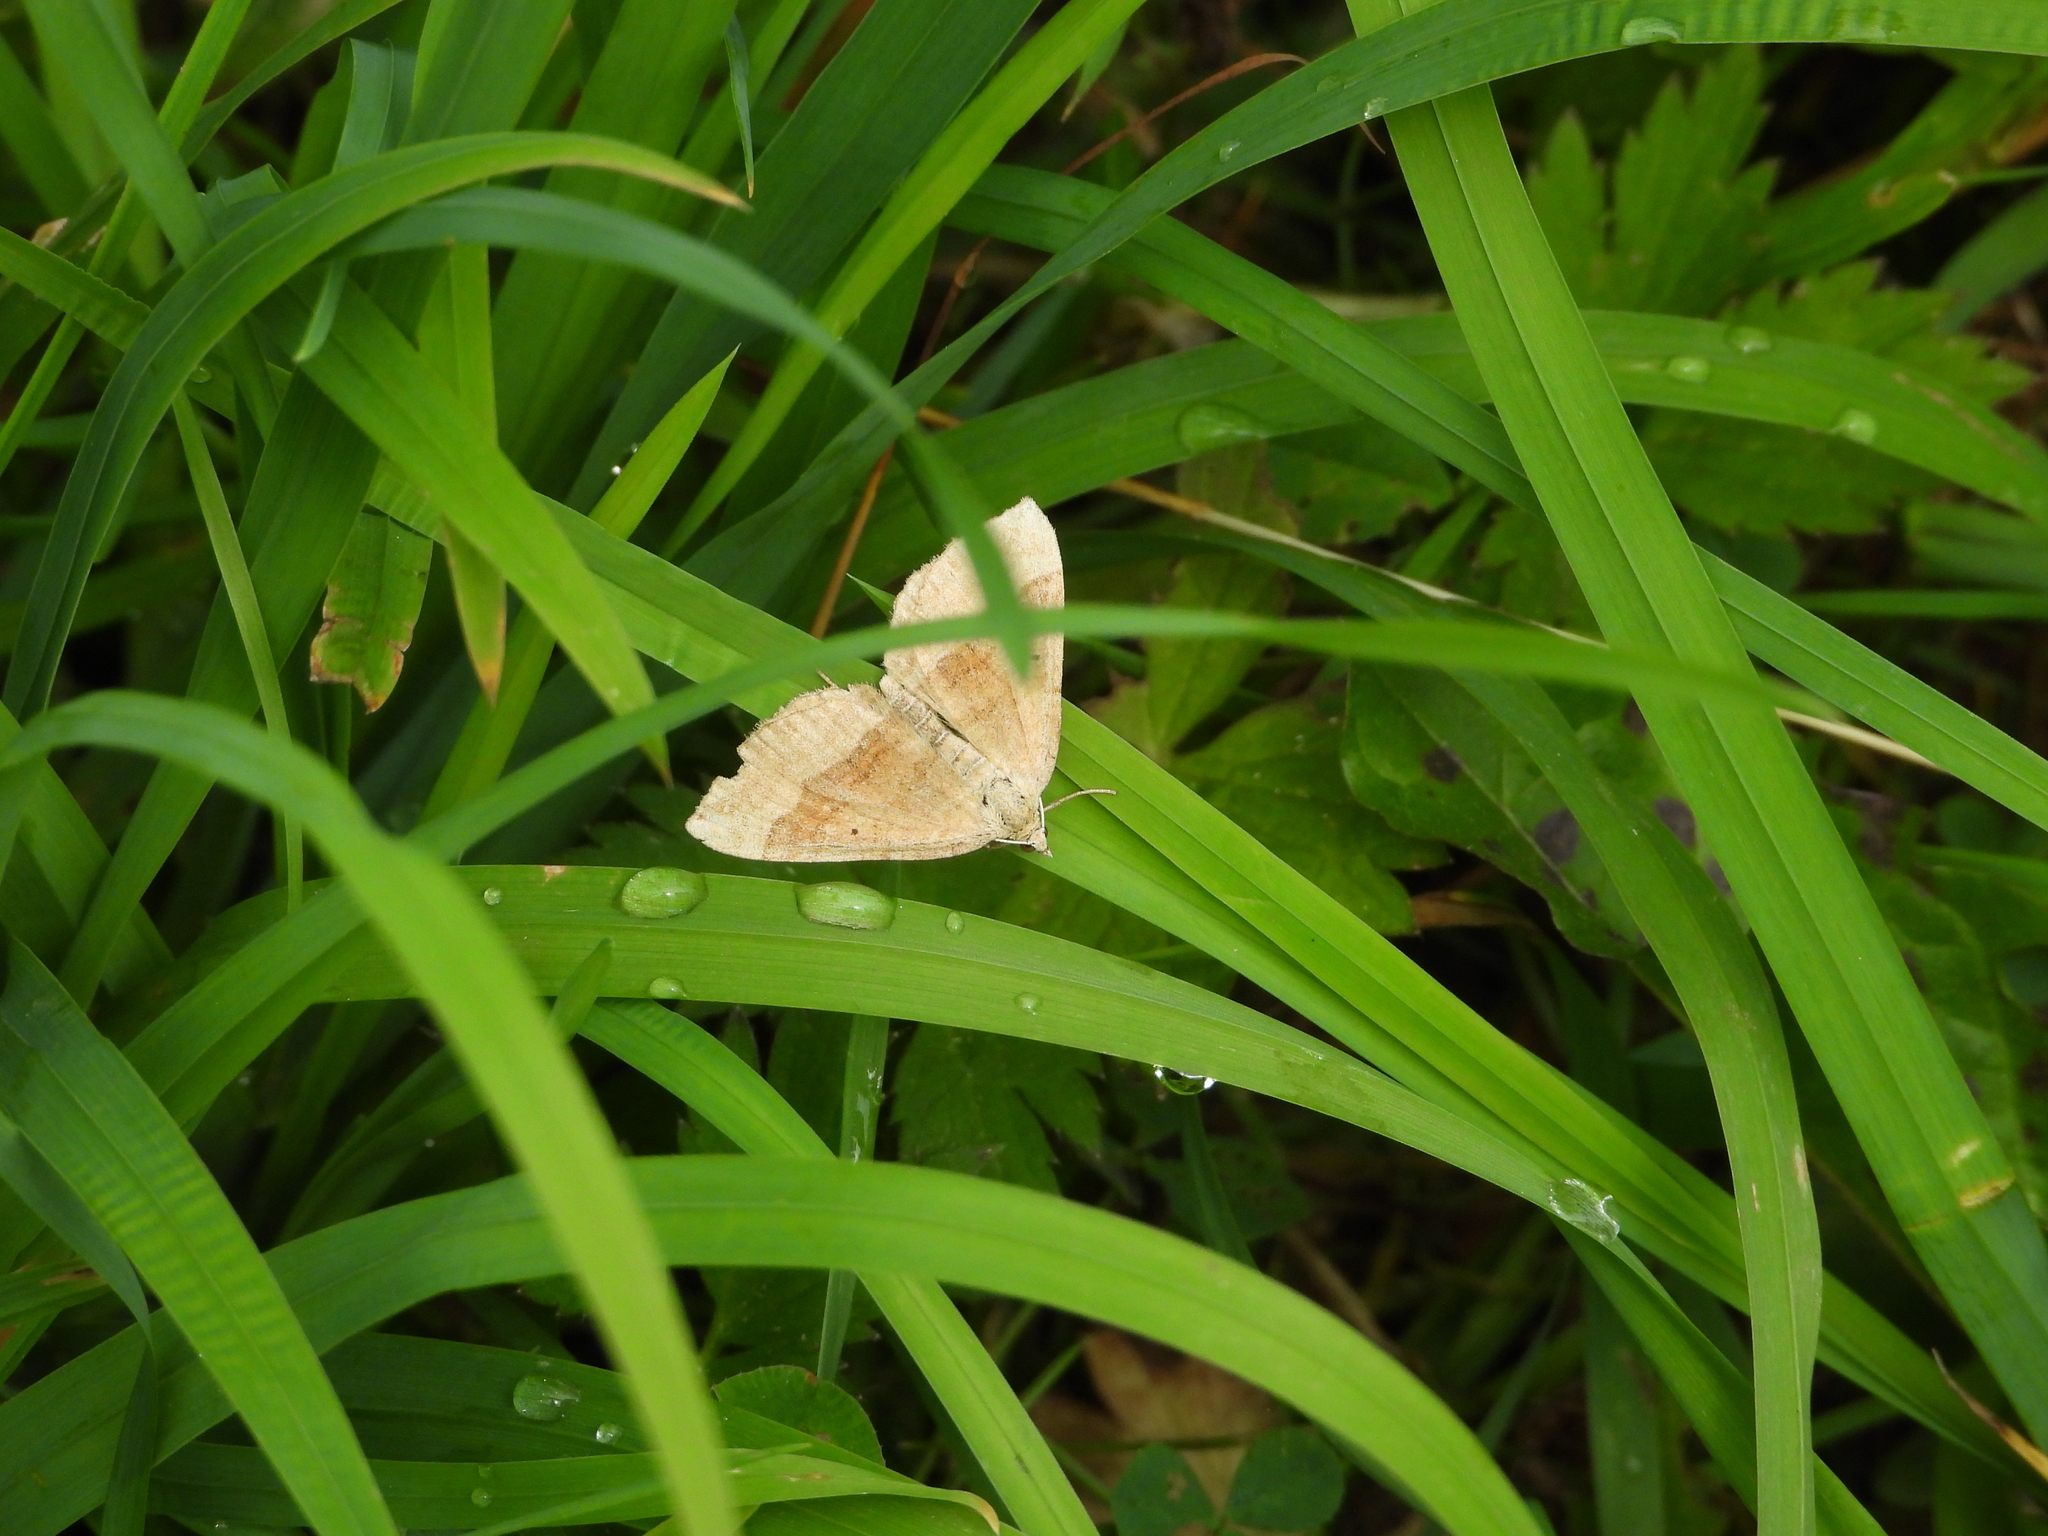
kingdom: Animalia
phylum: Arthropoda
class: Insecta
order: Lepidoptera
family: Geometridae
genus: Scotopteryx
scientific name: Scotopteryx chenopodiata
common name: Shaded broad-bar
